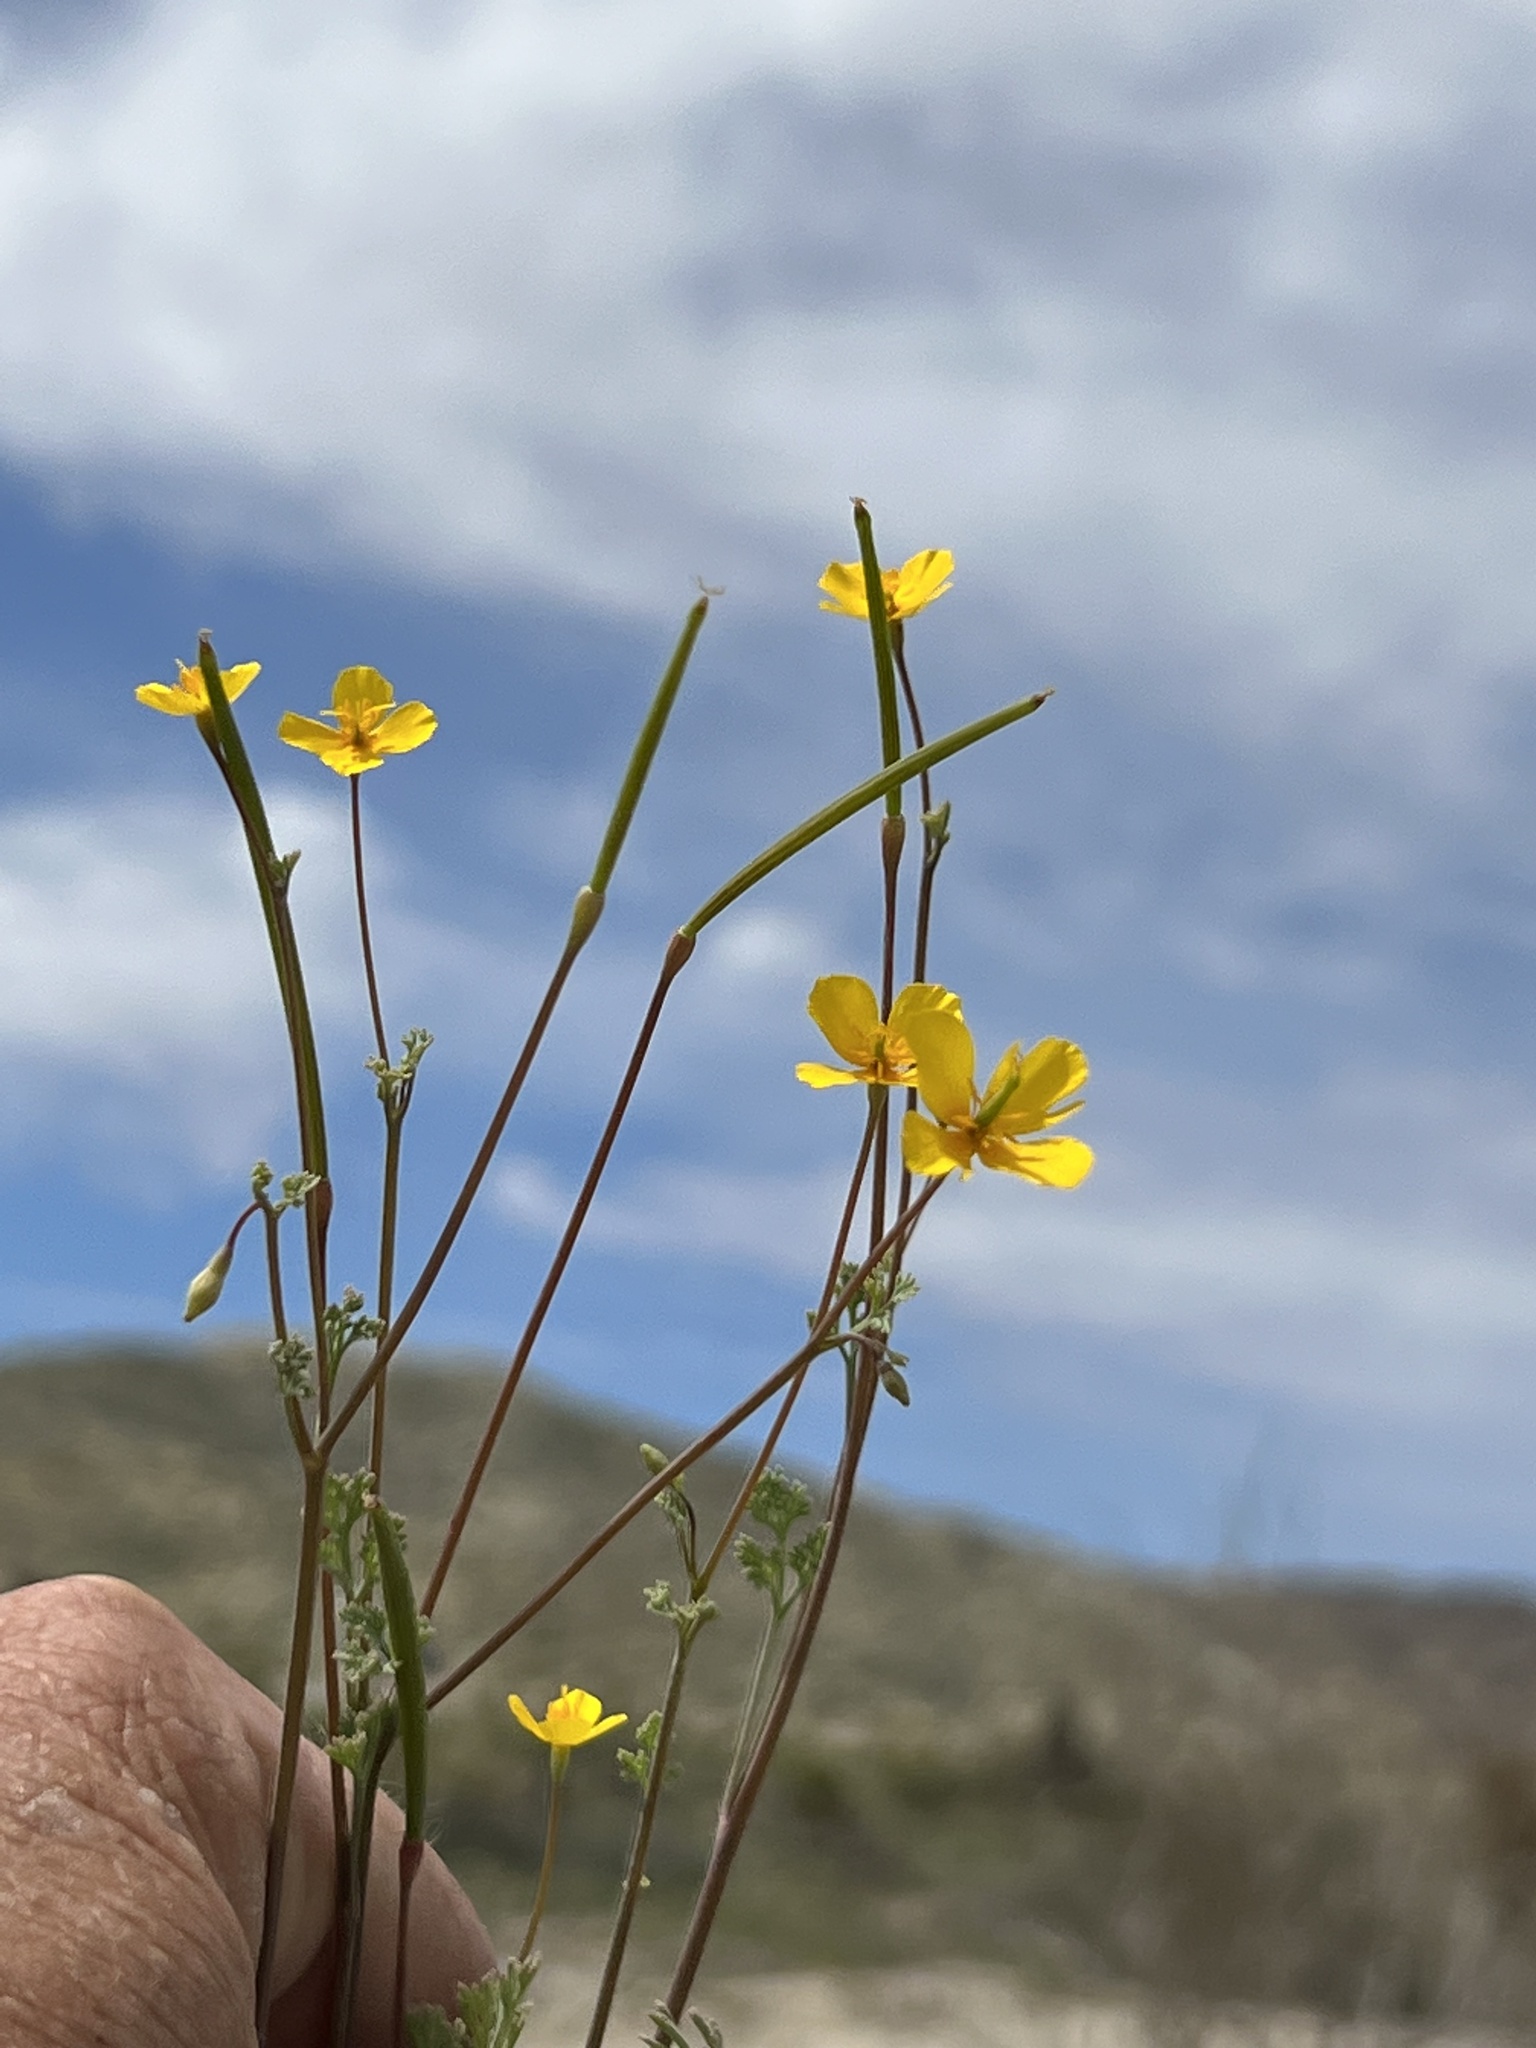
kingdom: Plantae
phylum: Tracheophyta
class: Magnoliopsida
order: Ranunculales
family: Papaveraceae
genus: Eschscholzia
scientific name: Eschscholzia minutiflora
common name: Small-flower california-poppy
